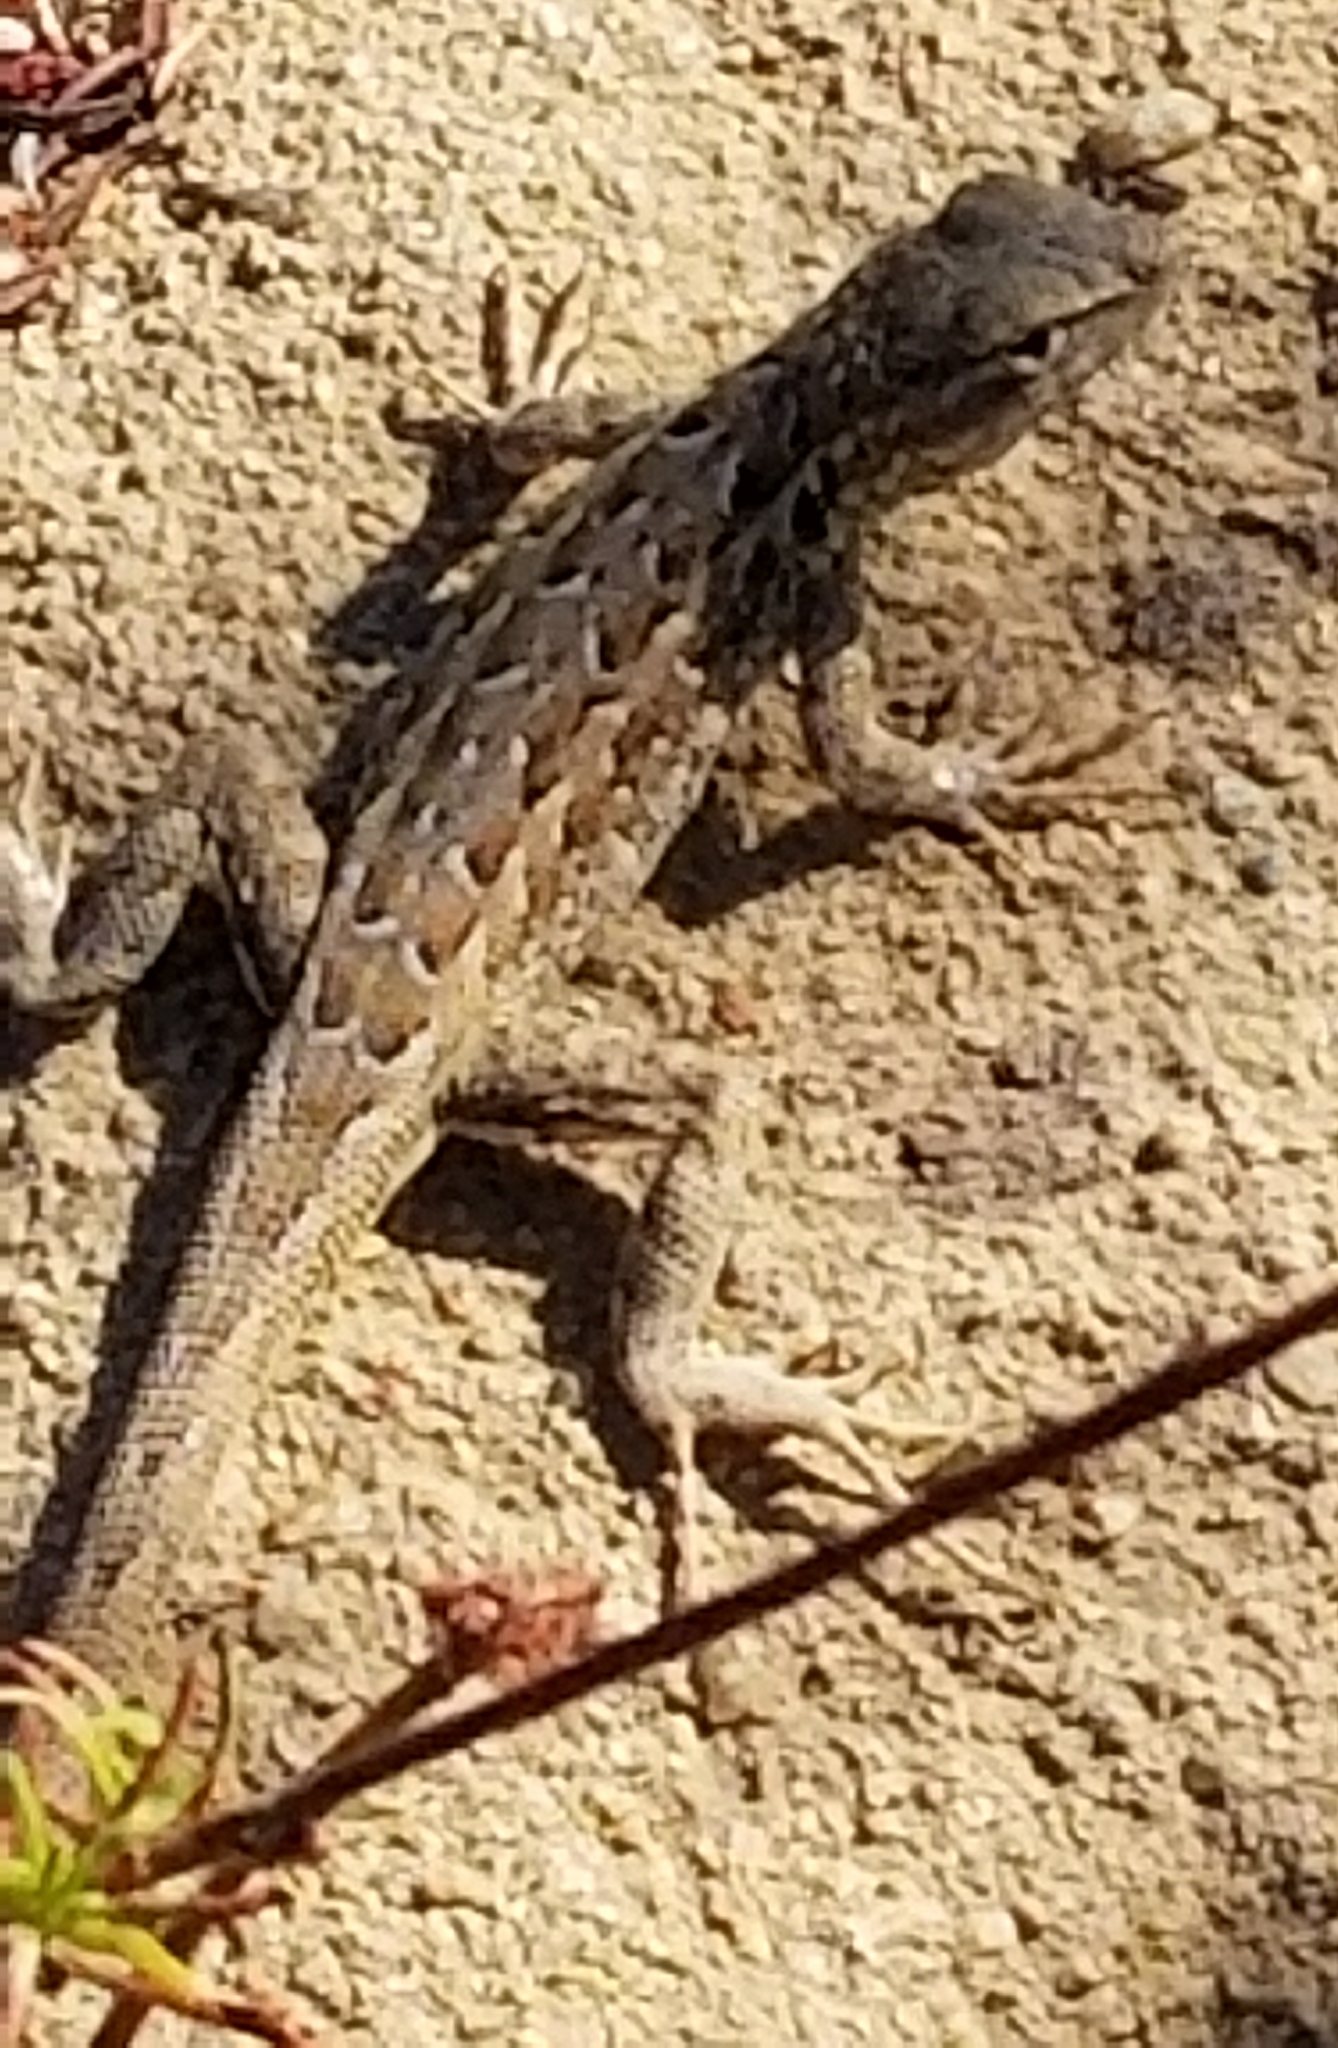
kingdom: Animalia
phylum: Chordata
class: Squamata
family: Phrynosomatidae
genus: Uta
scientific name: Uta stansburiana
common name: Side-blotched lizard
